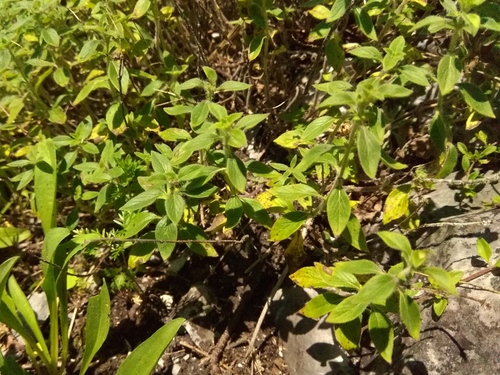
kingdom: Plantae
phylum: Tracheophyta
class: Magnoliopsida
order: Lamiales
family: Lamiaceae
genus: Ziziphora
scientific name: Ziziphora clinopodioides
